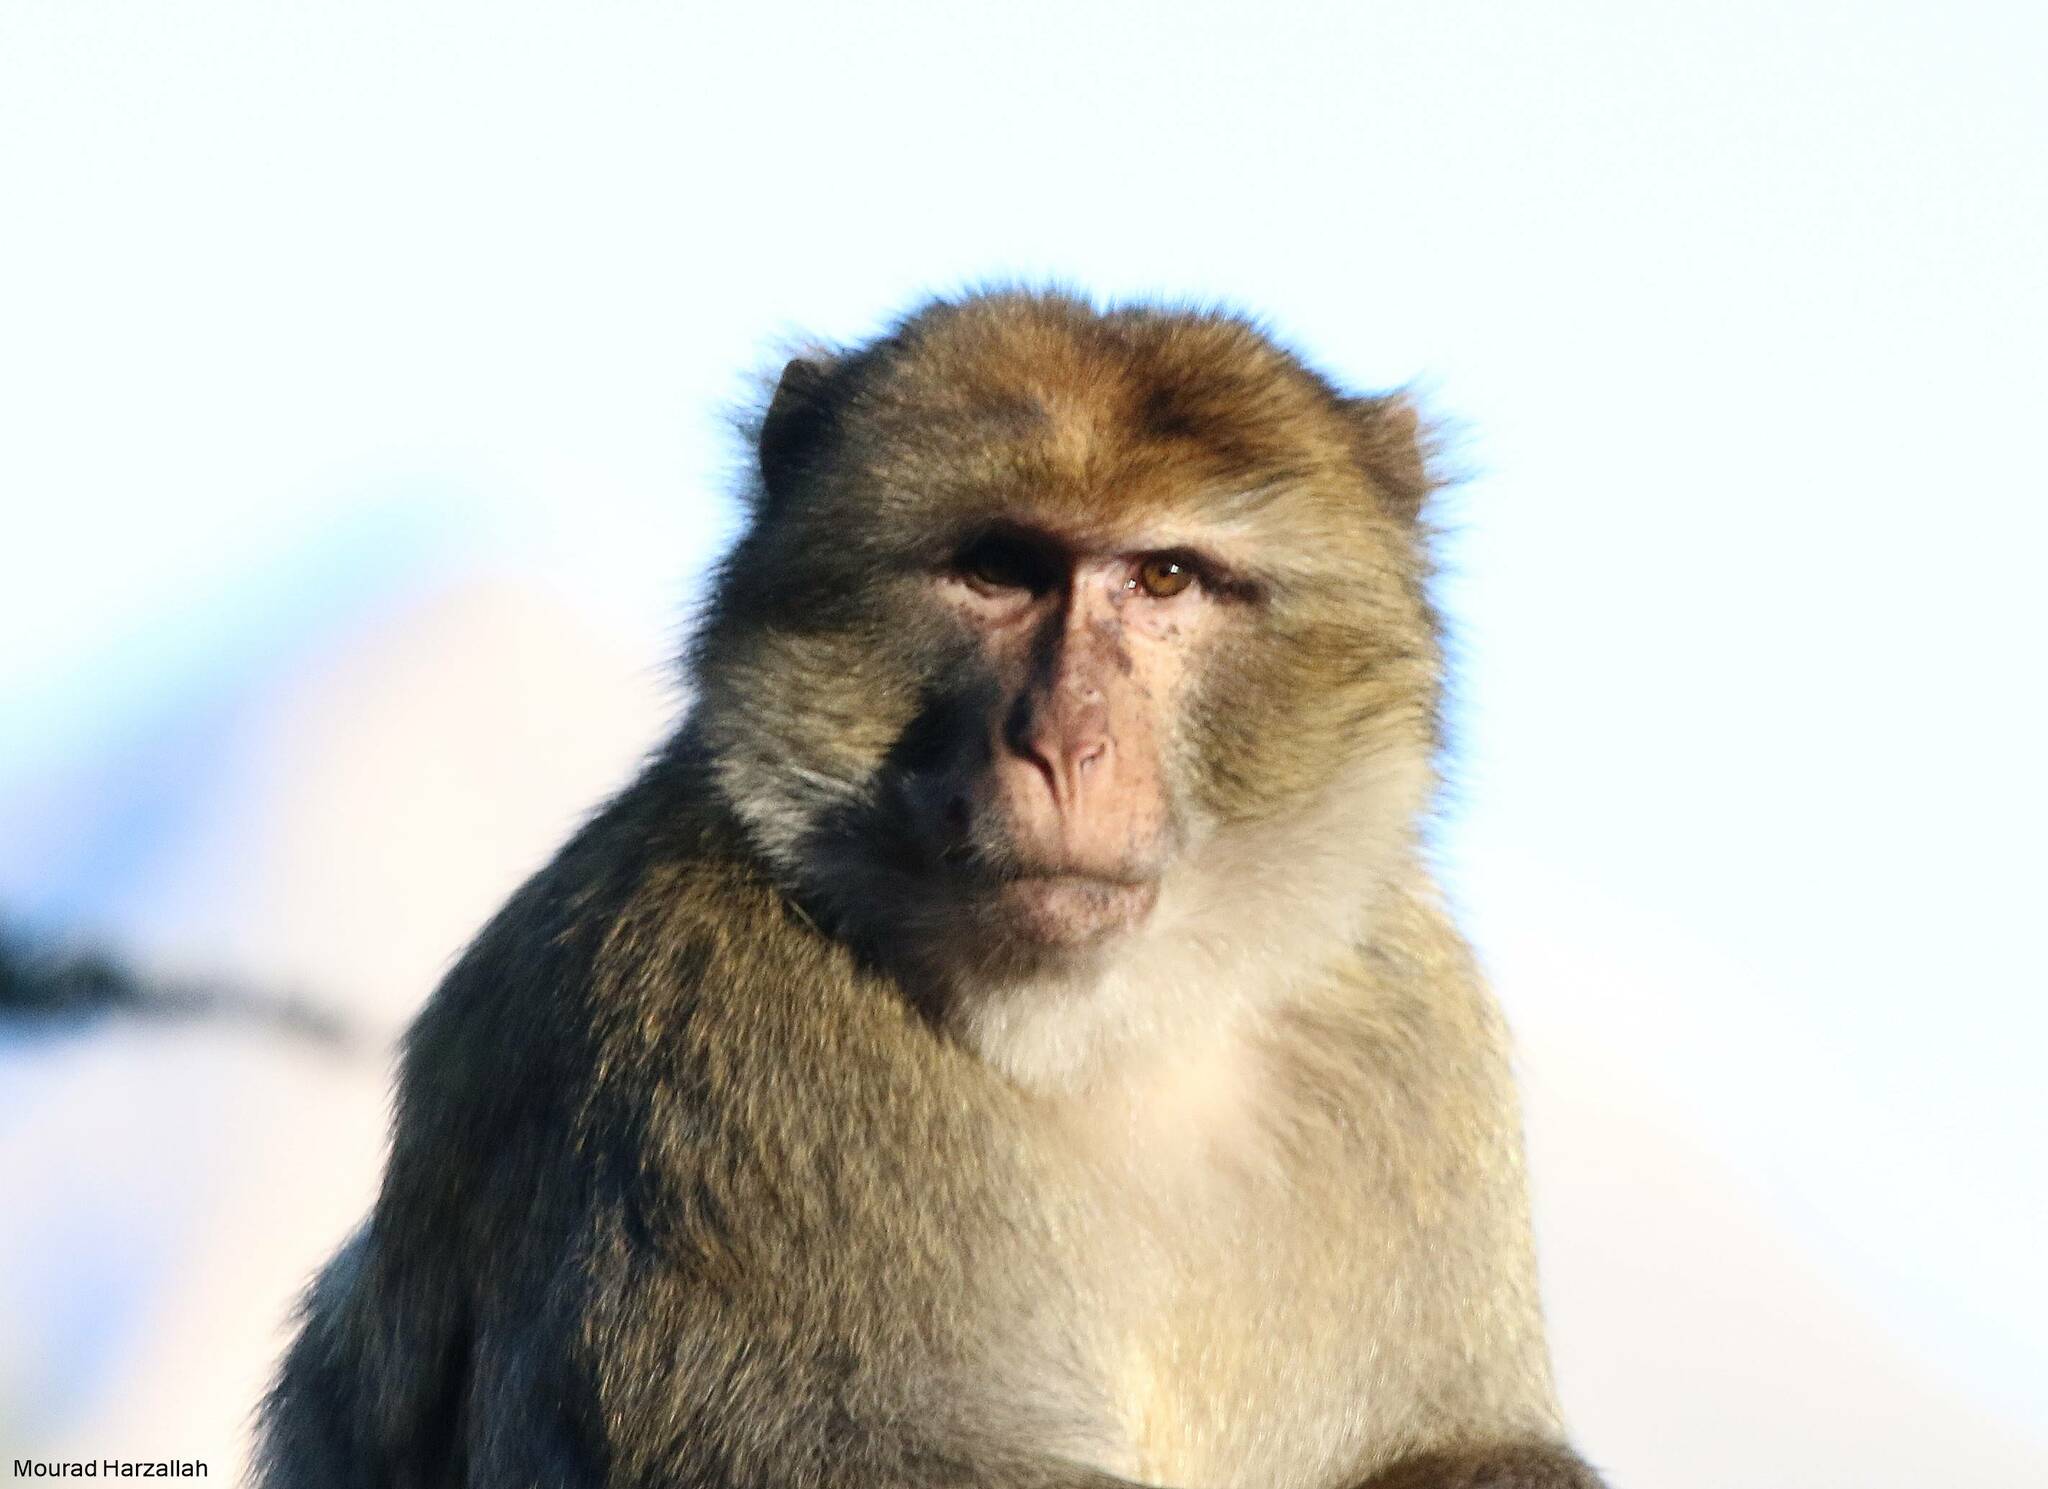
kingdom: Animalia
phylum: Chordata
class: Mammalia
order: Primates
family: Cercopithecidae
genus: Macaca
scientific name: Macaca sylvanus
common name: Barbary macaque
